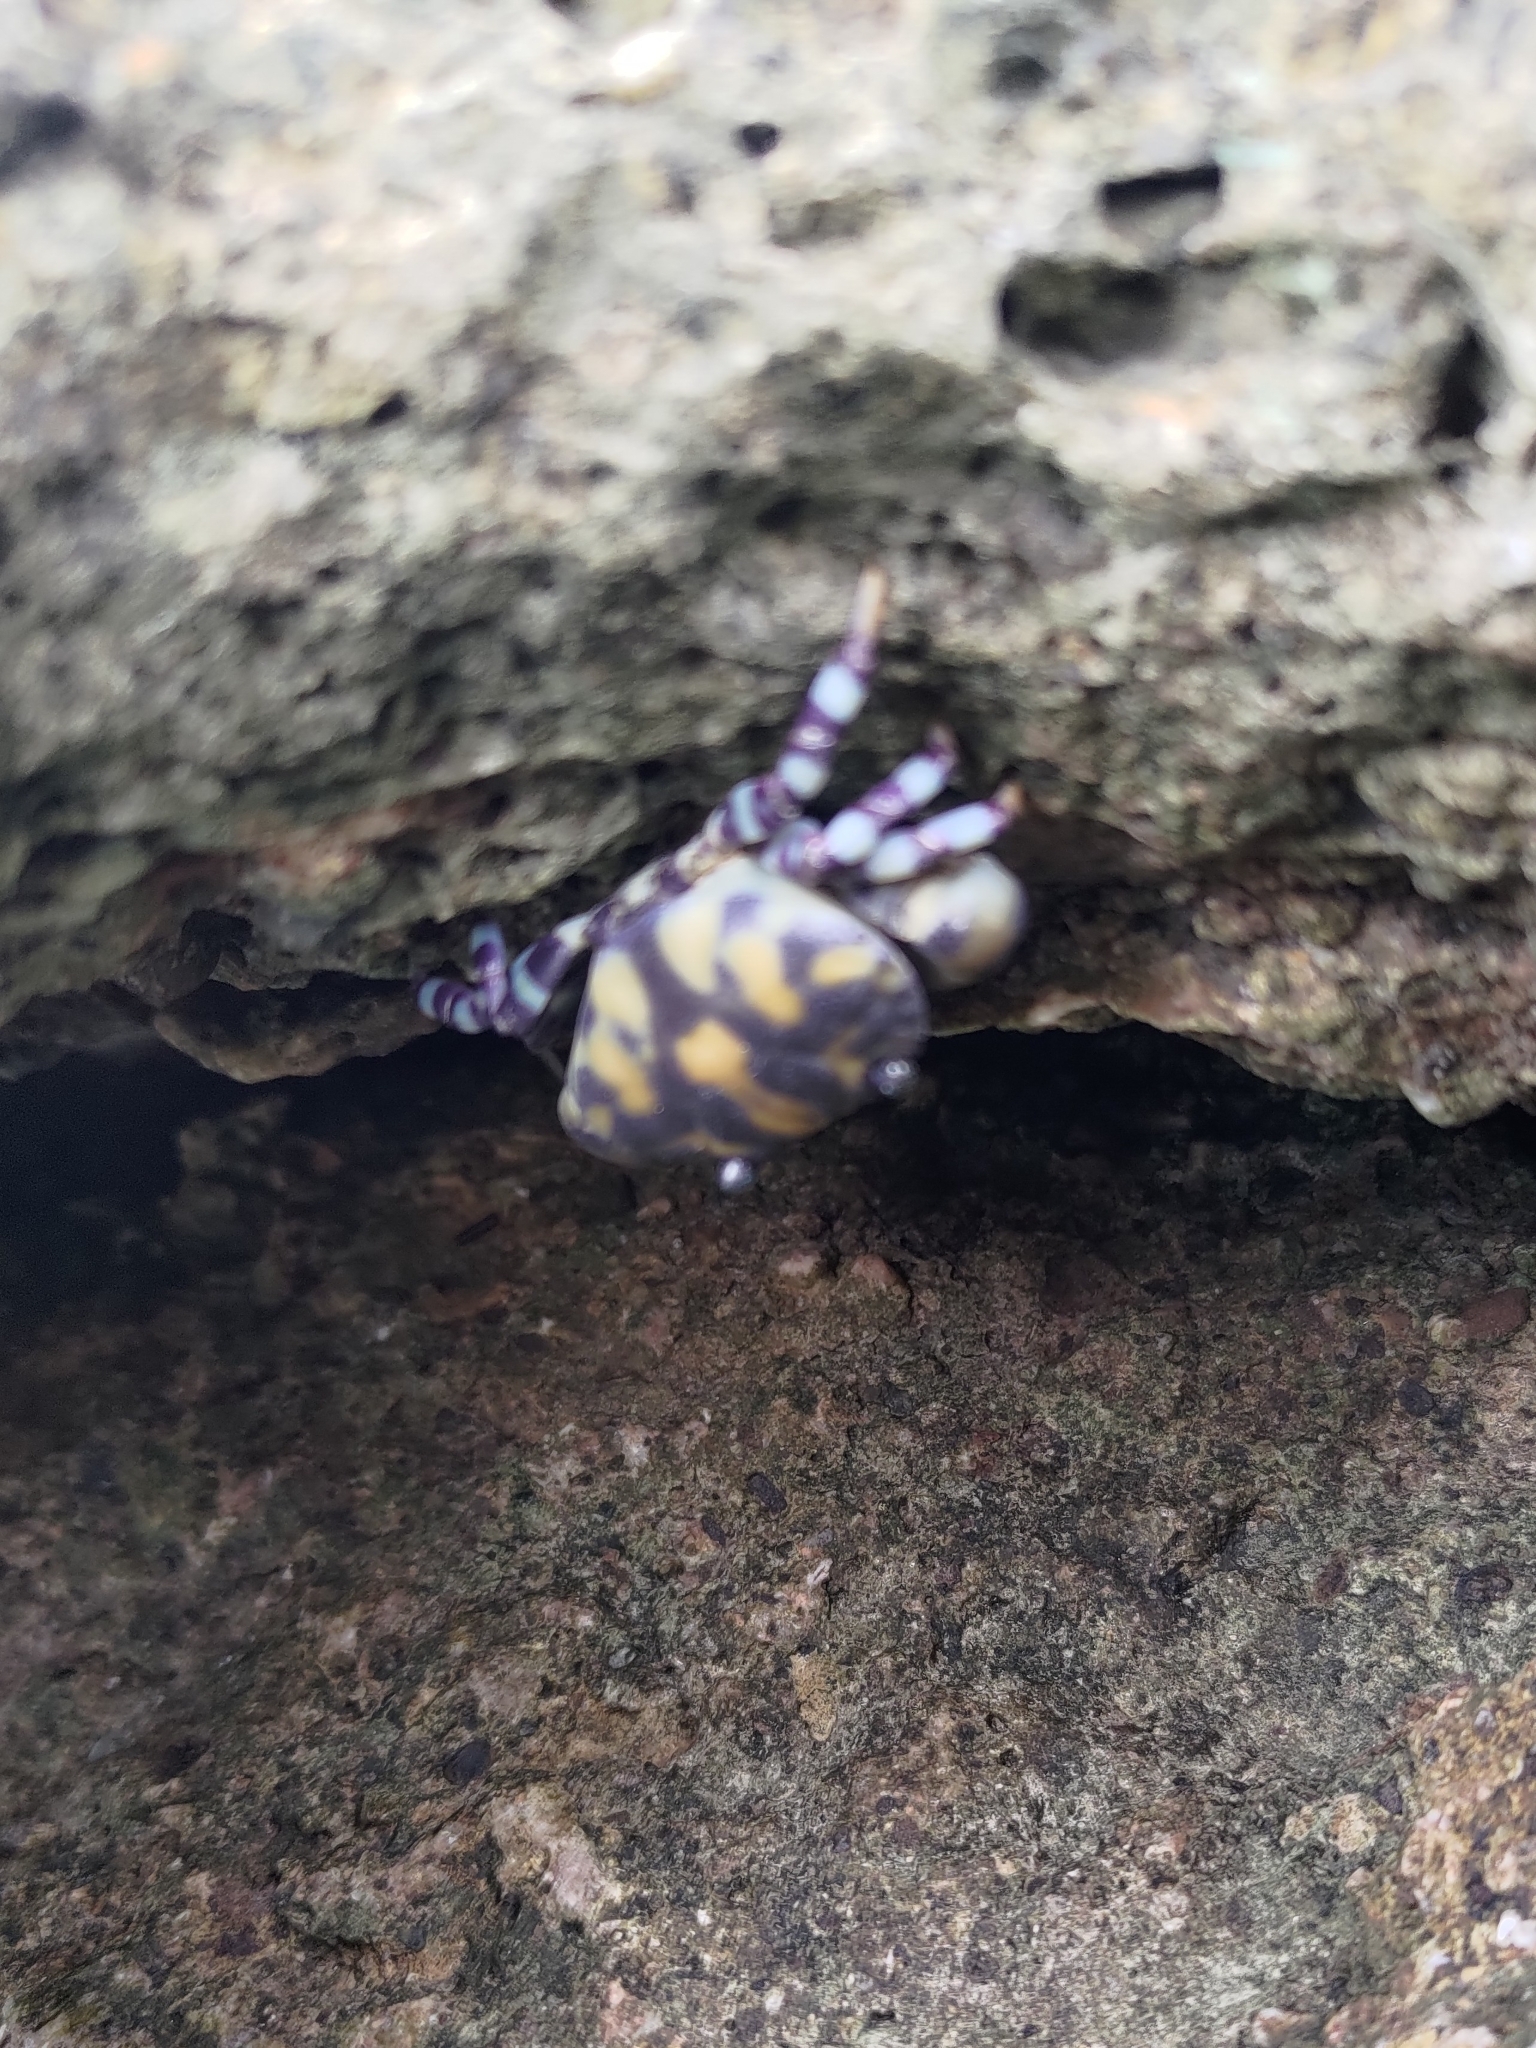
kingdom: Animalia
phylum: Arthropoda
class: Malacostraca
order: Decapoda
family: Oziidae
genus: Lydia
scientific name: Lydia annulipes
